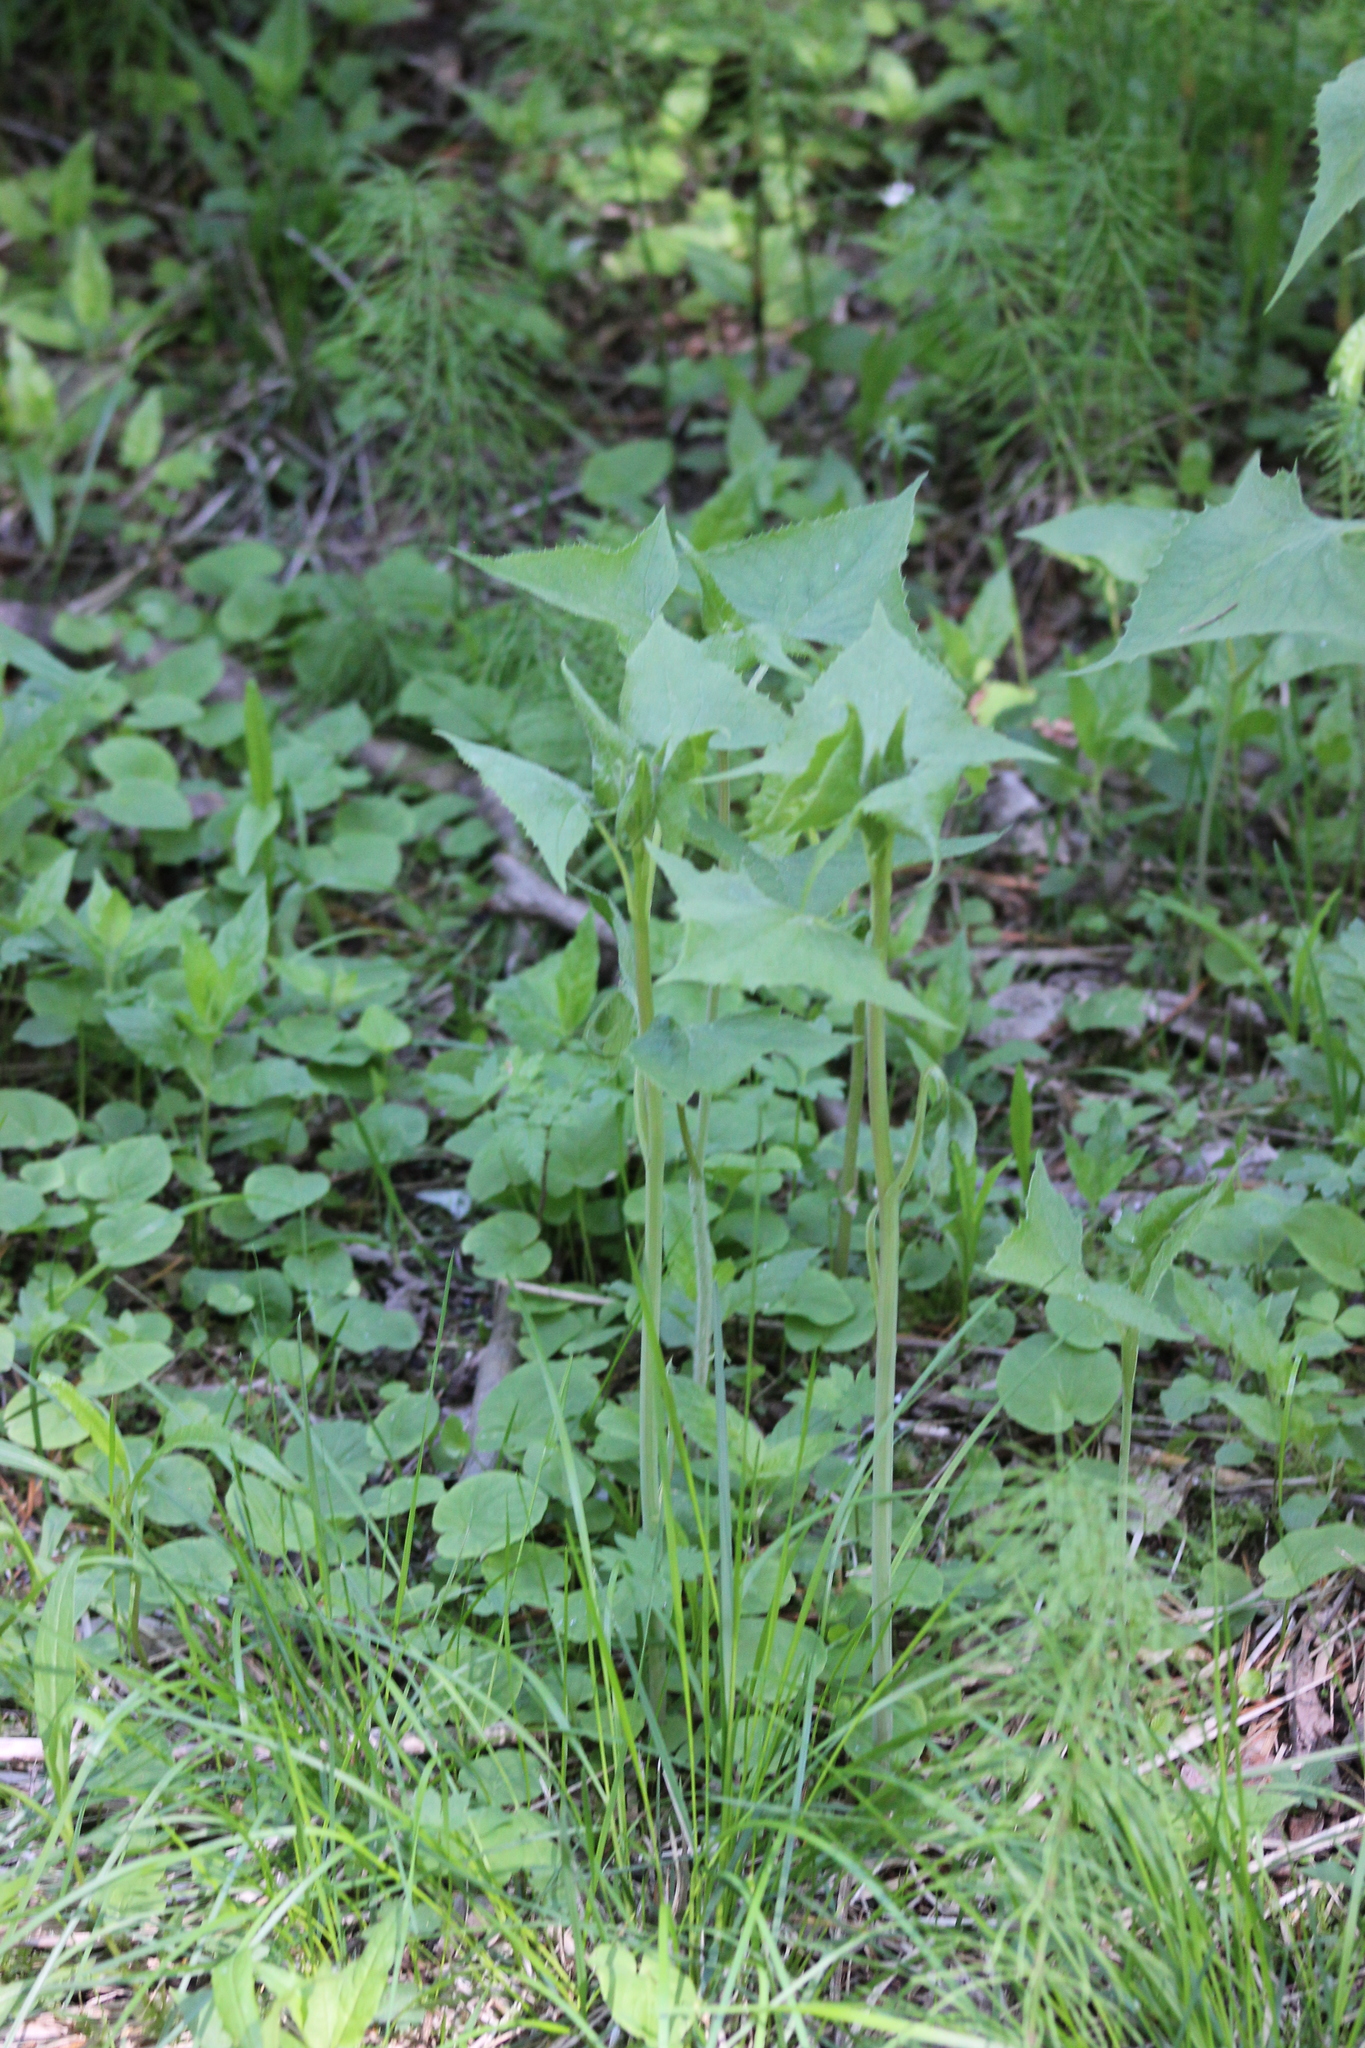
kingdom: Plantae
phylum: Tracheophyta
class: Magnoliopsida
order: Asterales
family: Asteraceae
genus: Parasenecio
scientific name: Parasenecio hastatus
